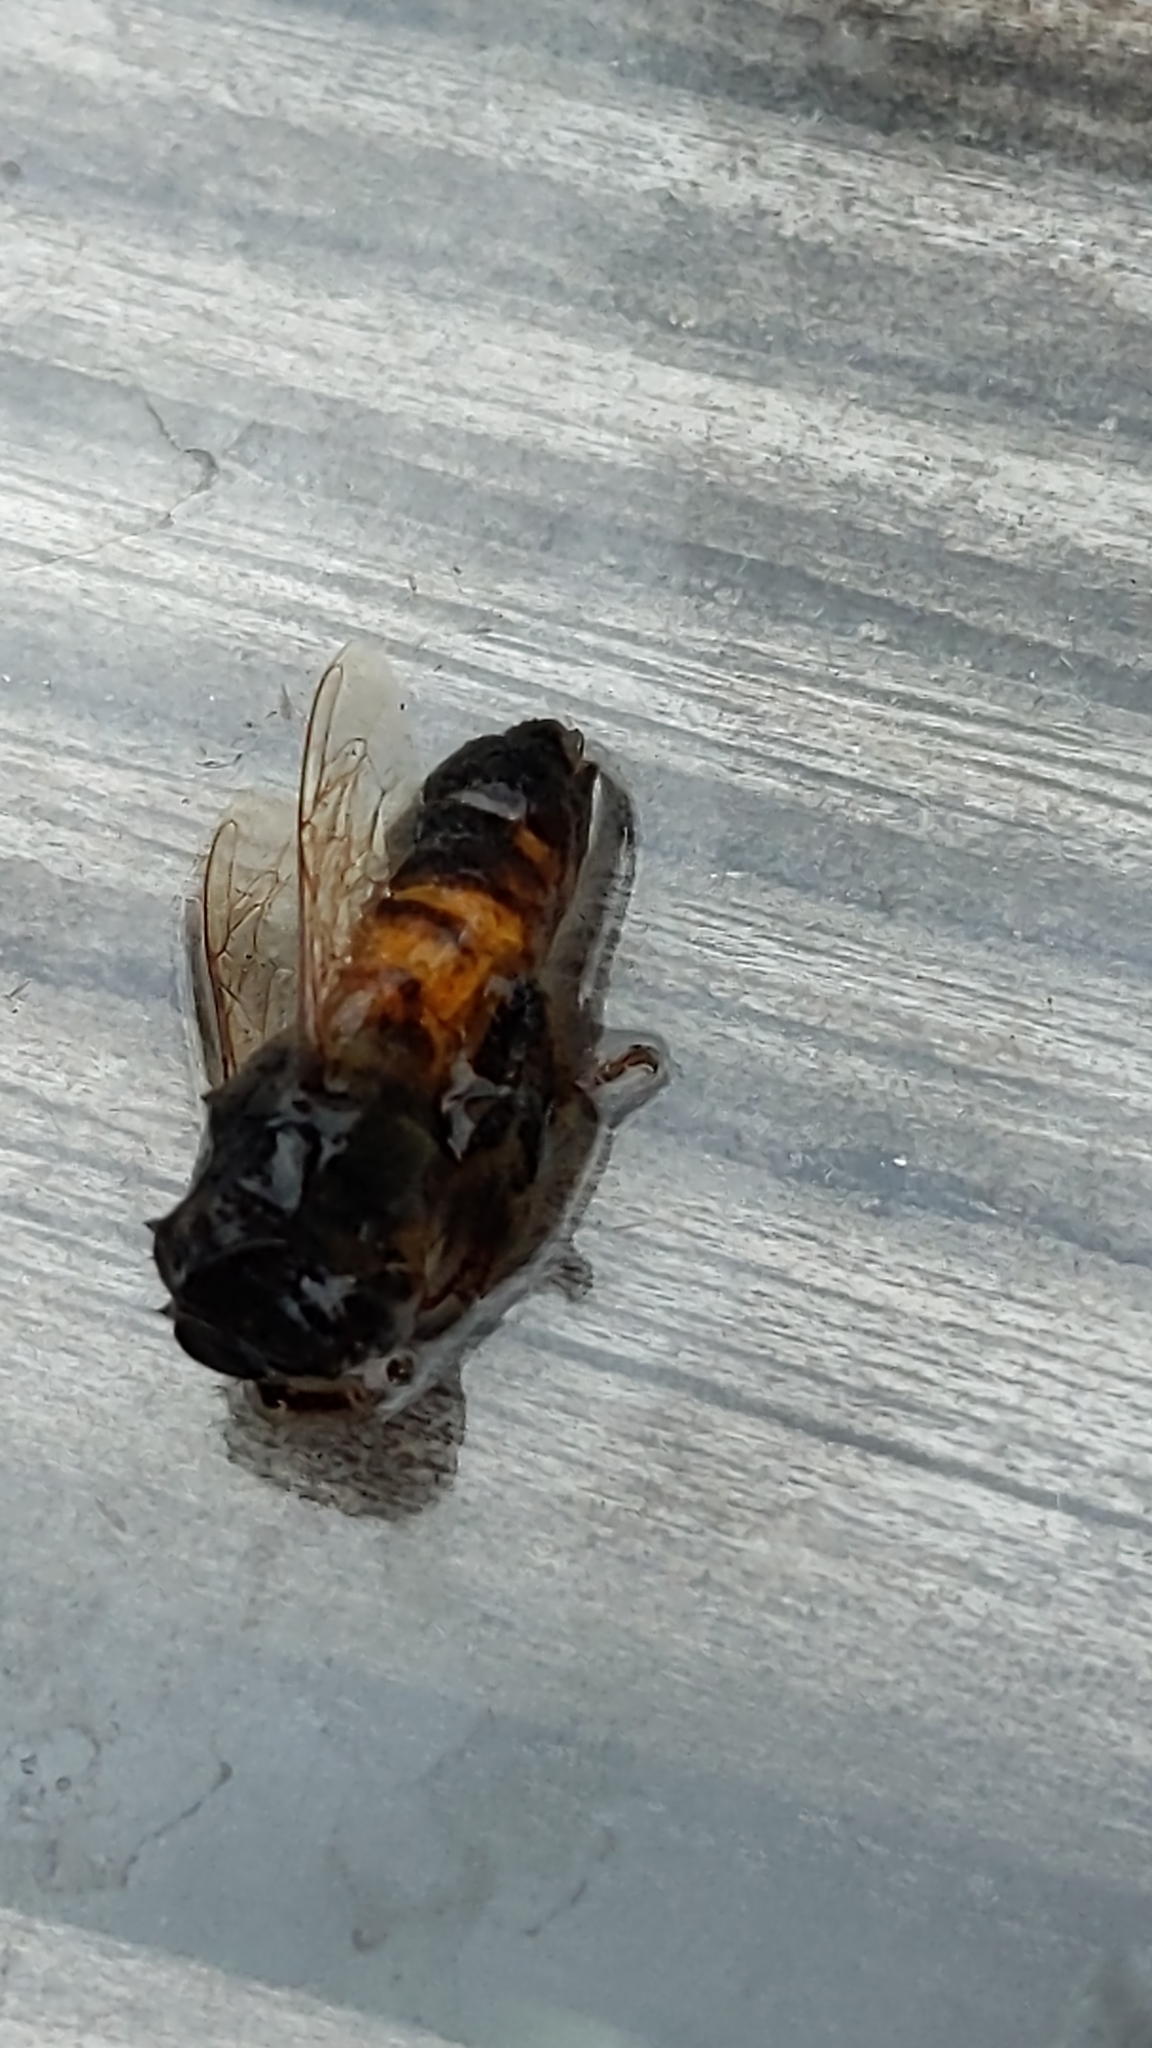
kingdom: Animalia
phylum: Arthropoda
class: Insecta
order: Hymenoptera
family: Apidae
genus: Apis
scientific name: Apis mellifera
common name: Honey bee
